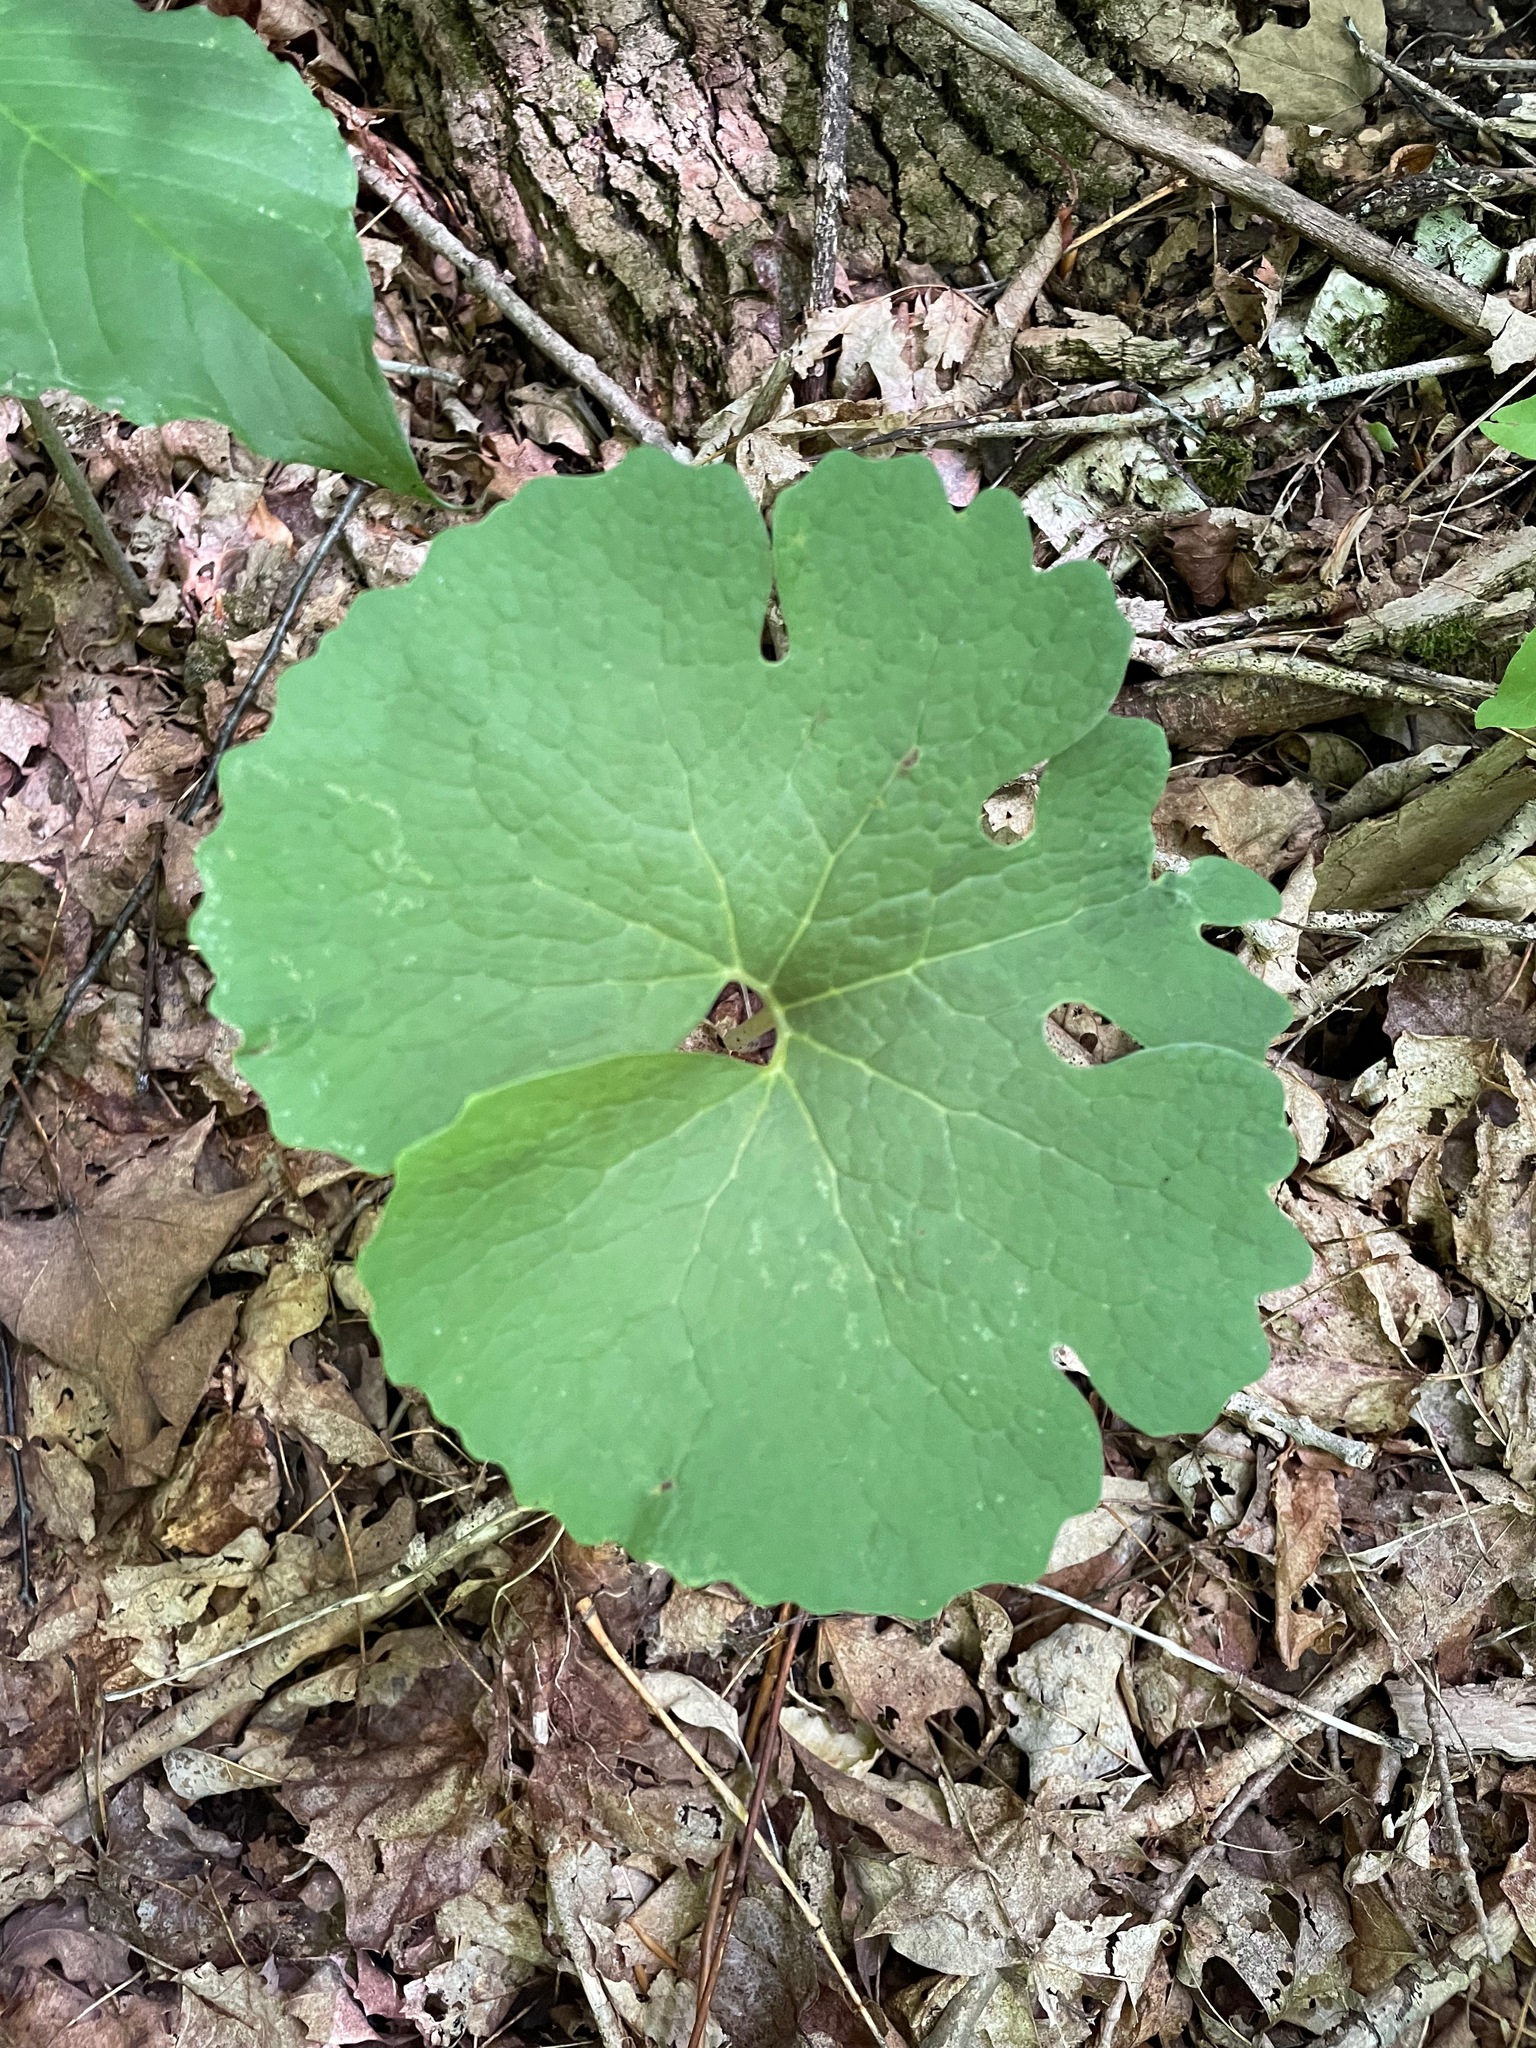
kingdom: Plantae
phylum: Tracheophyta
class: Magnoliopsida
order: Ranunculales
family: Papaveraceae
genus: Sanguinaria
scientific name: Sanguinaria canadensis
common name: Bloodroot
